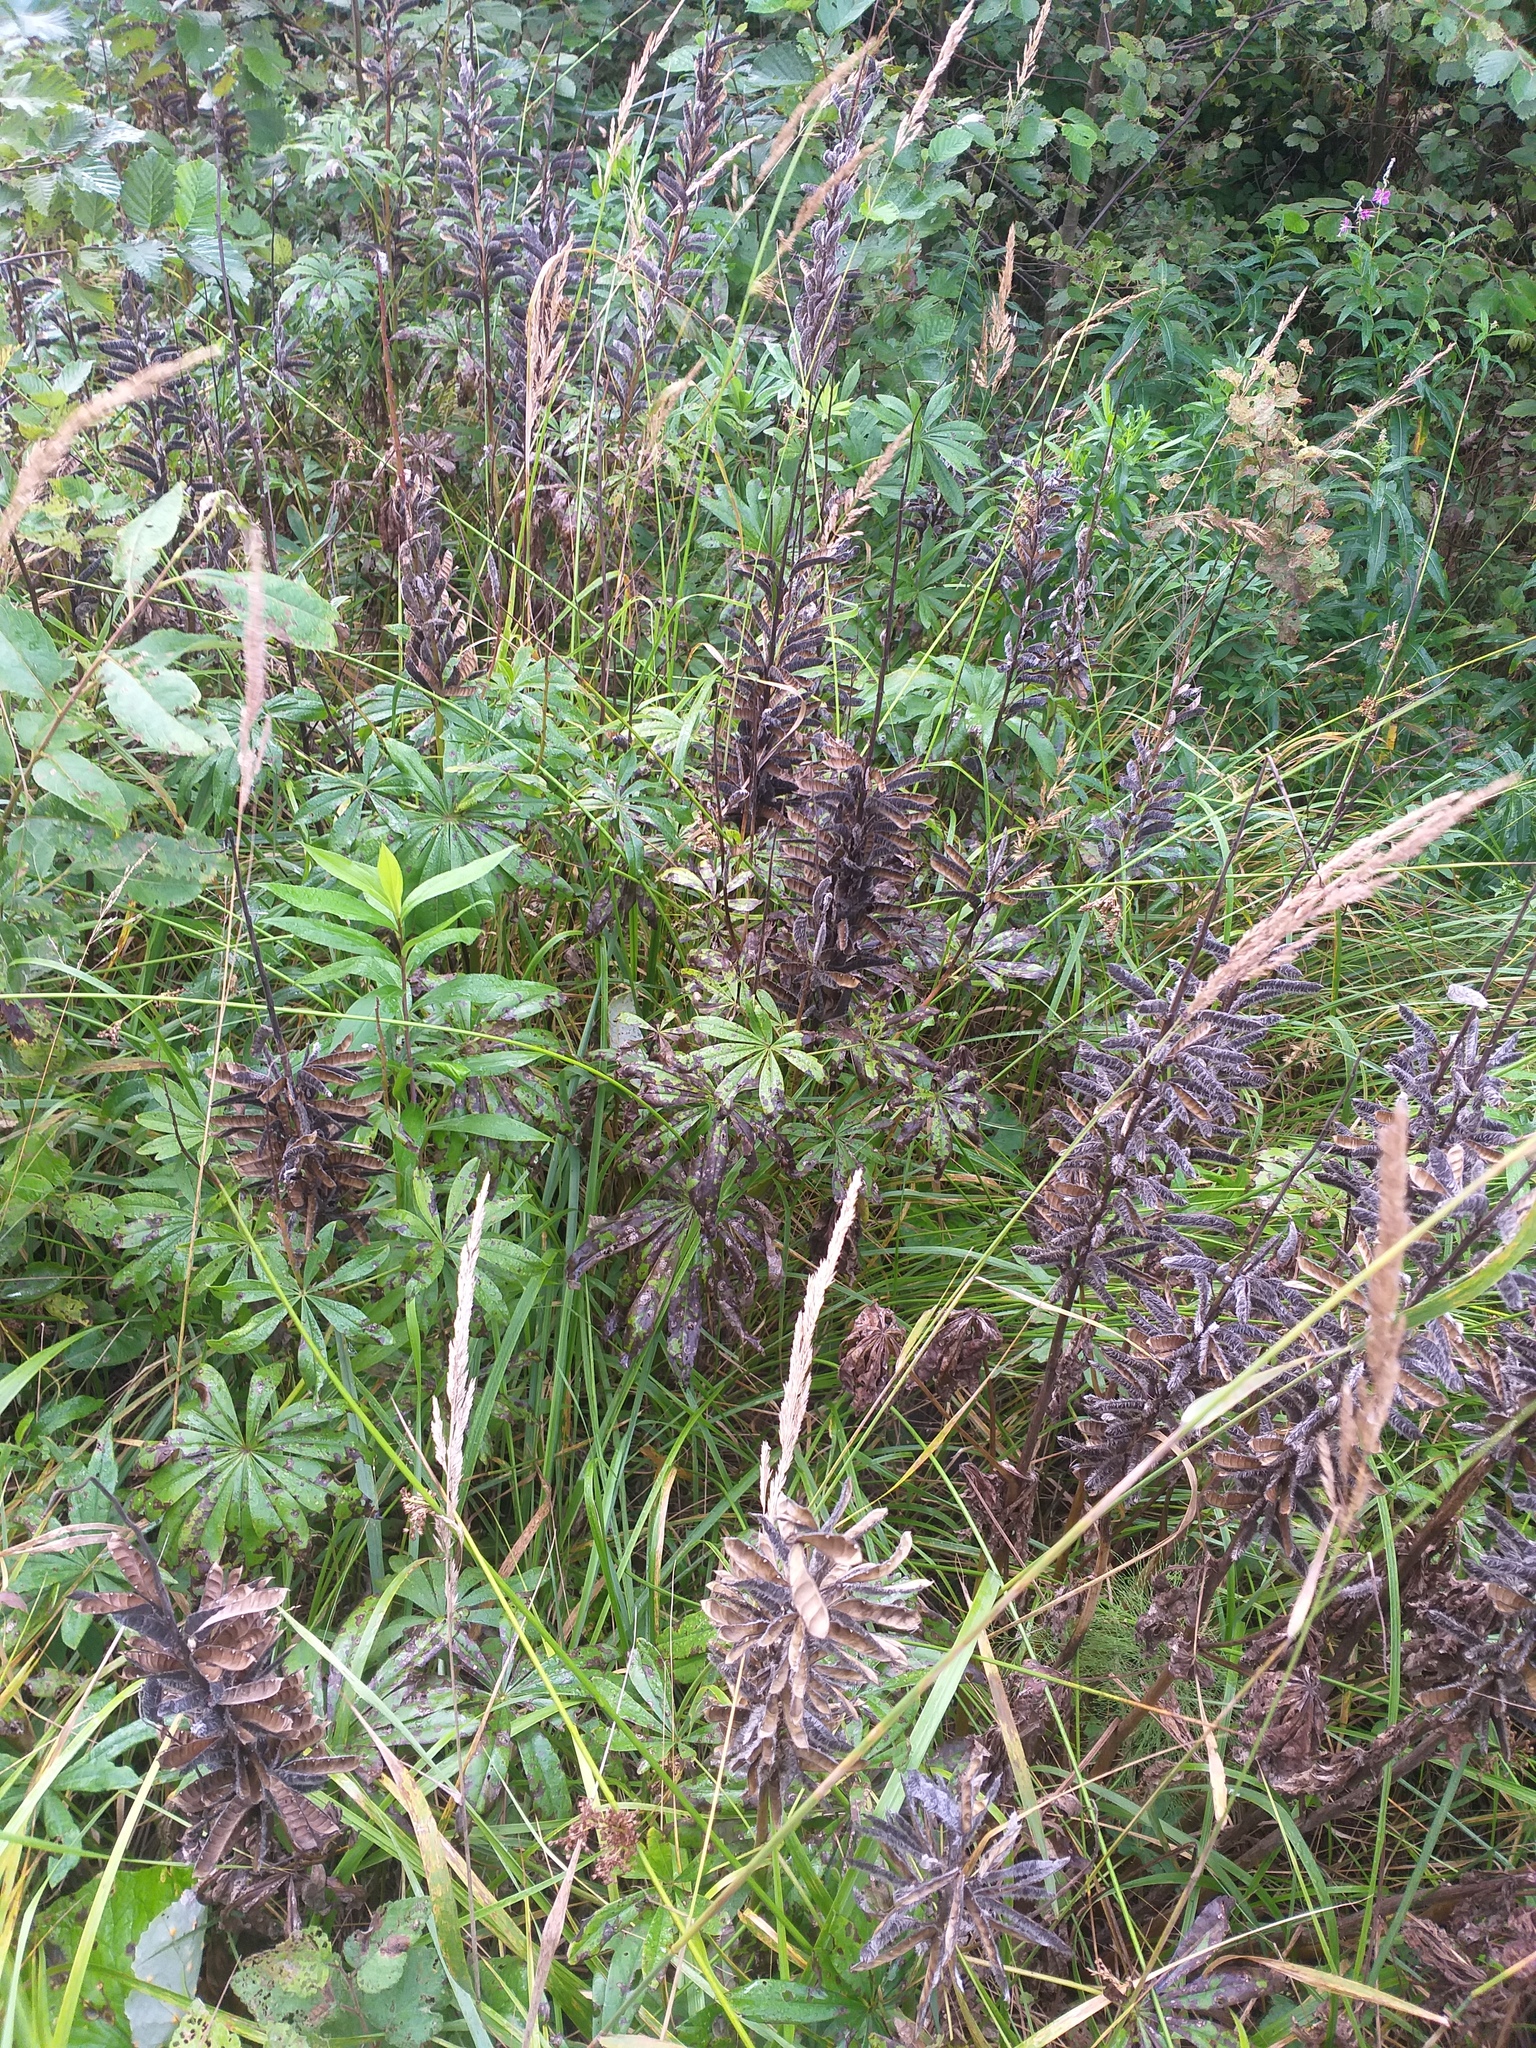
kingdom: Plantae
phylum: Tracheophyta
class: Magnoliopsida
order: Fabales
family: Fabaceae
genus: Lupinus
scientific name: Lupinus polyphyllus
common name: Garden lupin
